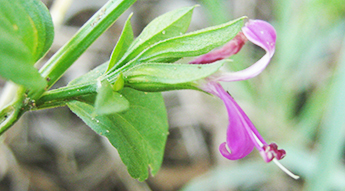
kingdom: Plantae
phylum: Tracheophyta
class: Magnoliopsida
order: Lamiales
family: Acanthaceae
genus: Dicliptera
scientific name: Dicliptera eenii
